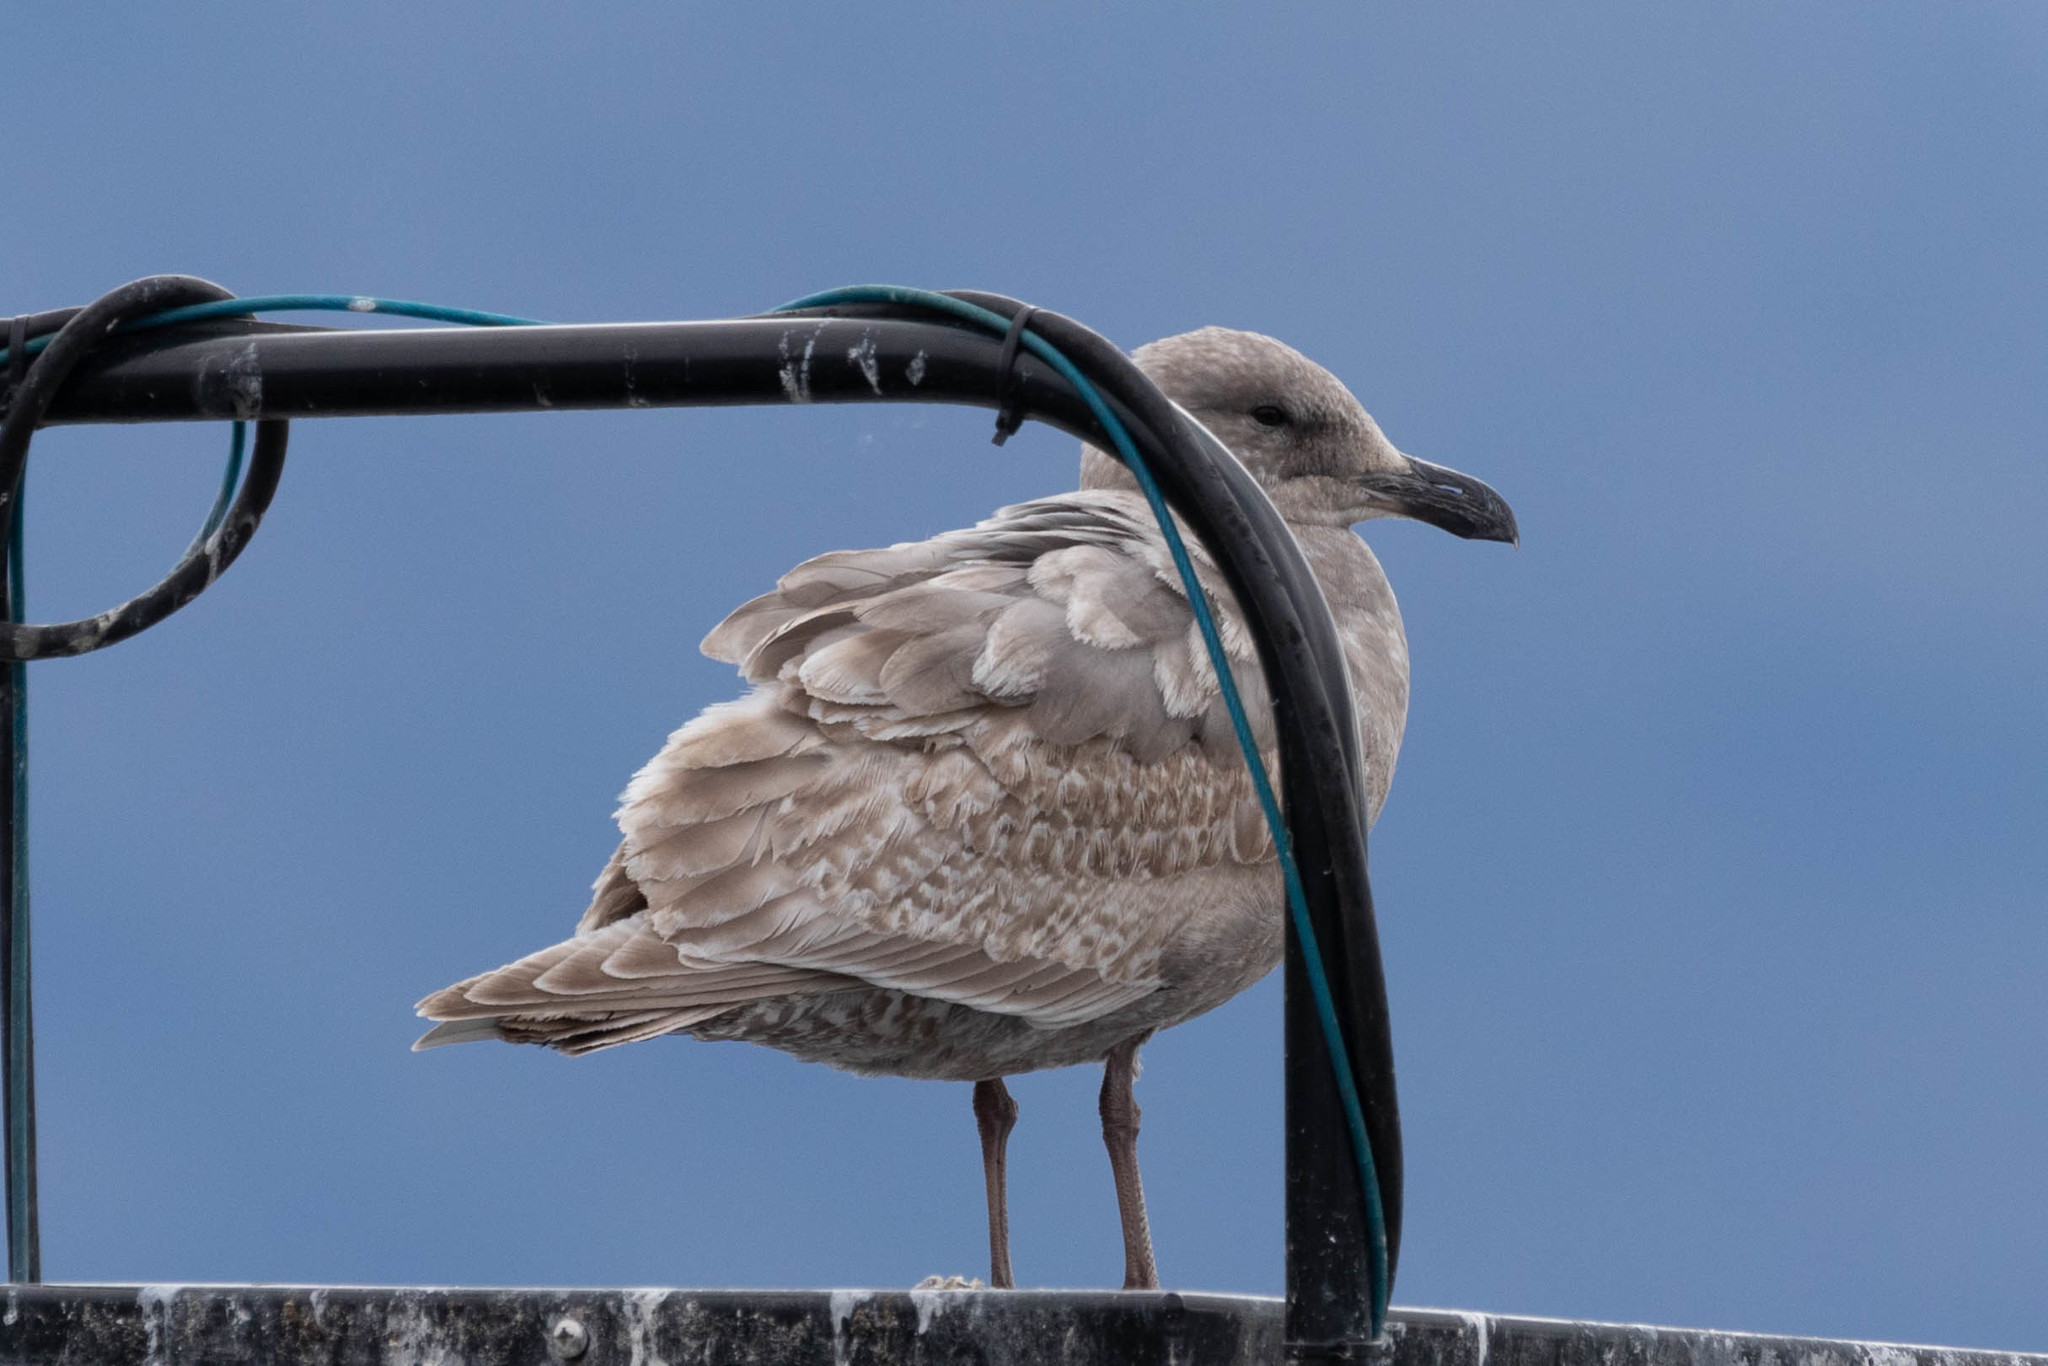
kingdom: Animalia
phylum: Chordata
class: Aves
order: Charadriiformes
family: Laridae
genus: Larus
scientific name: Larus glaucescens
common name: Glaucous-winged gull
